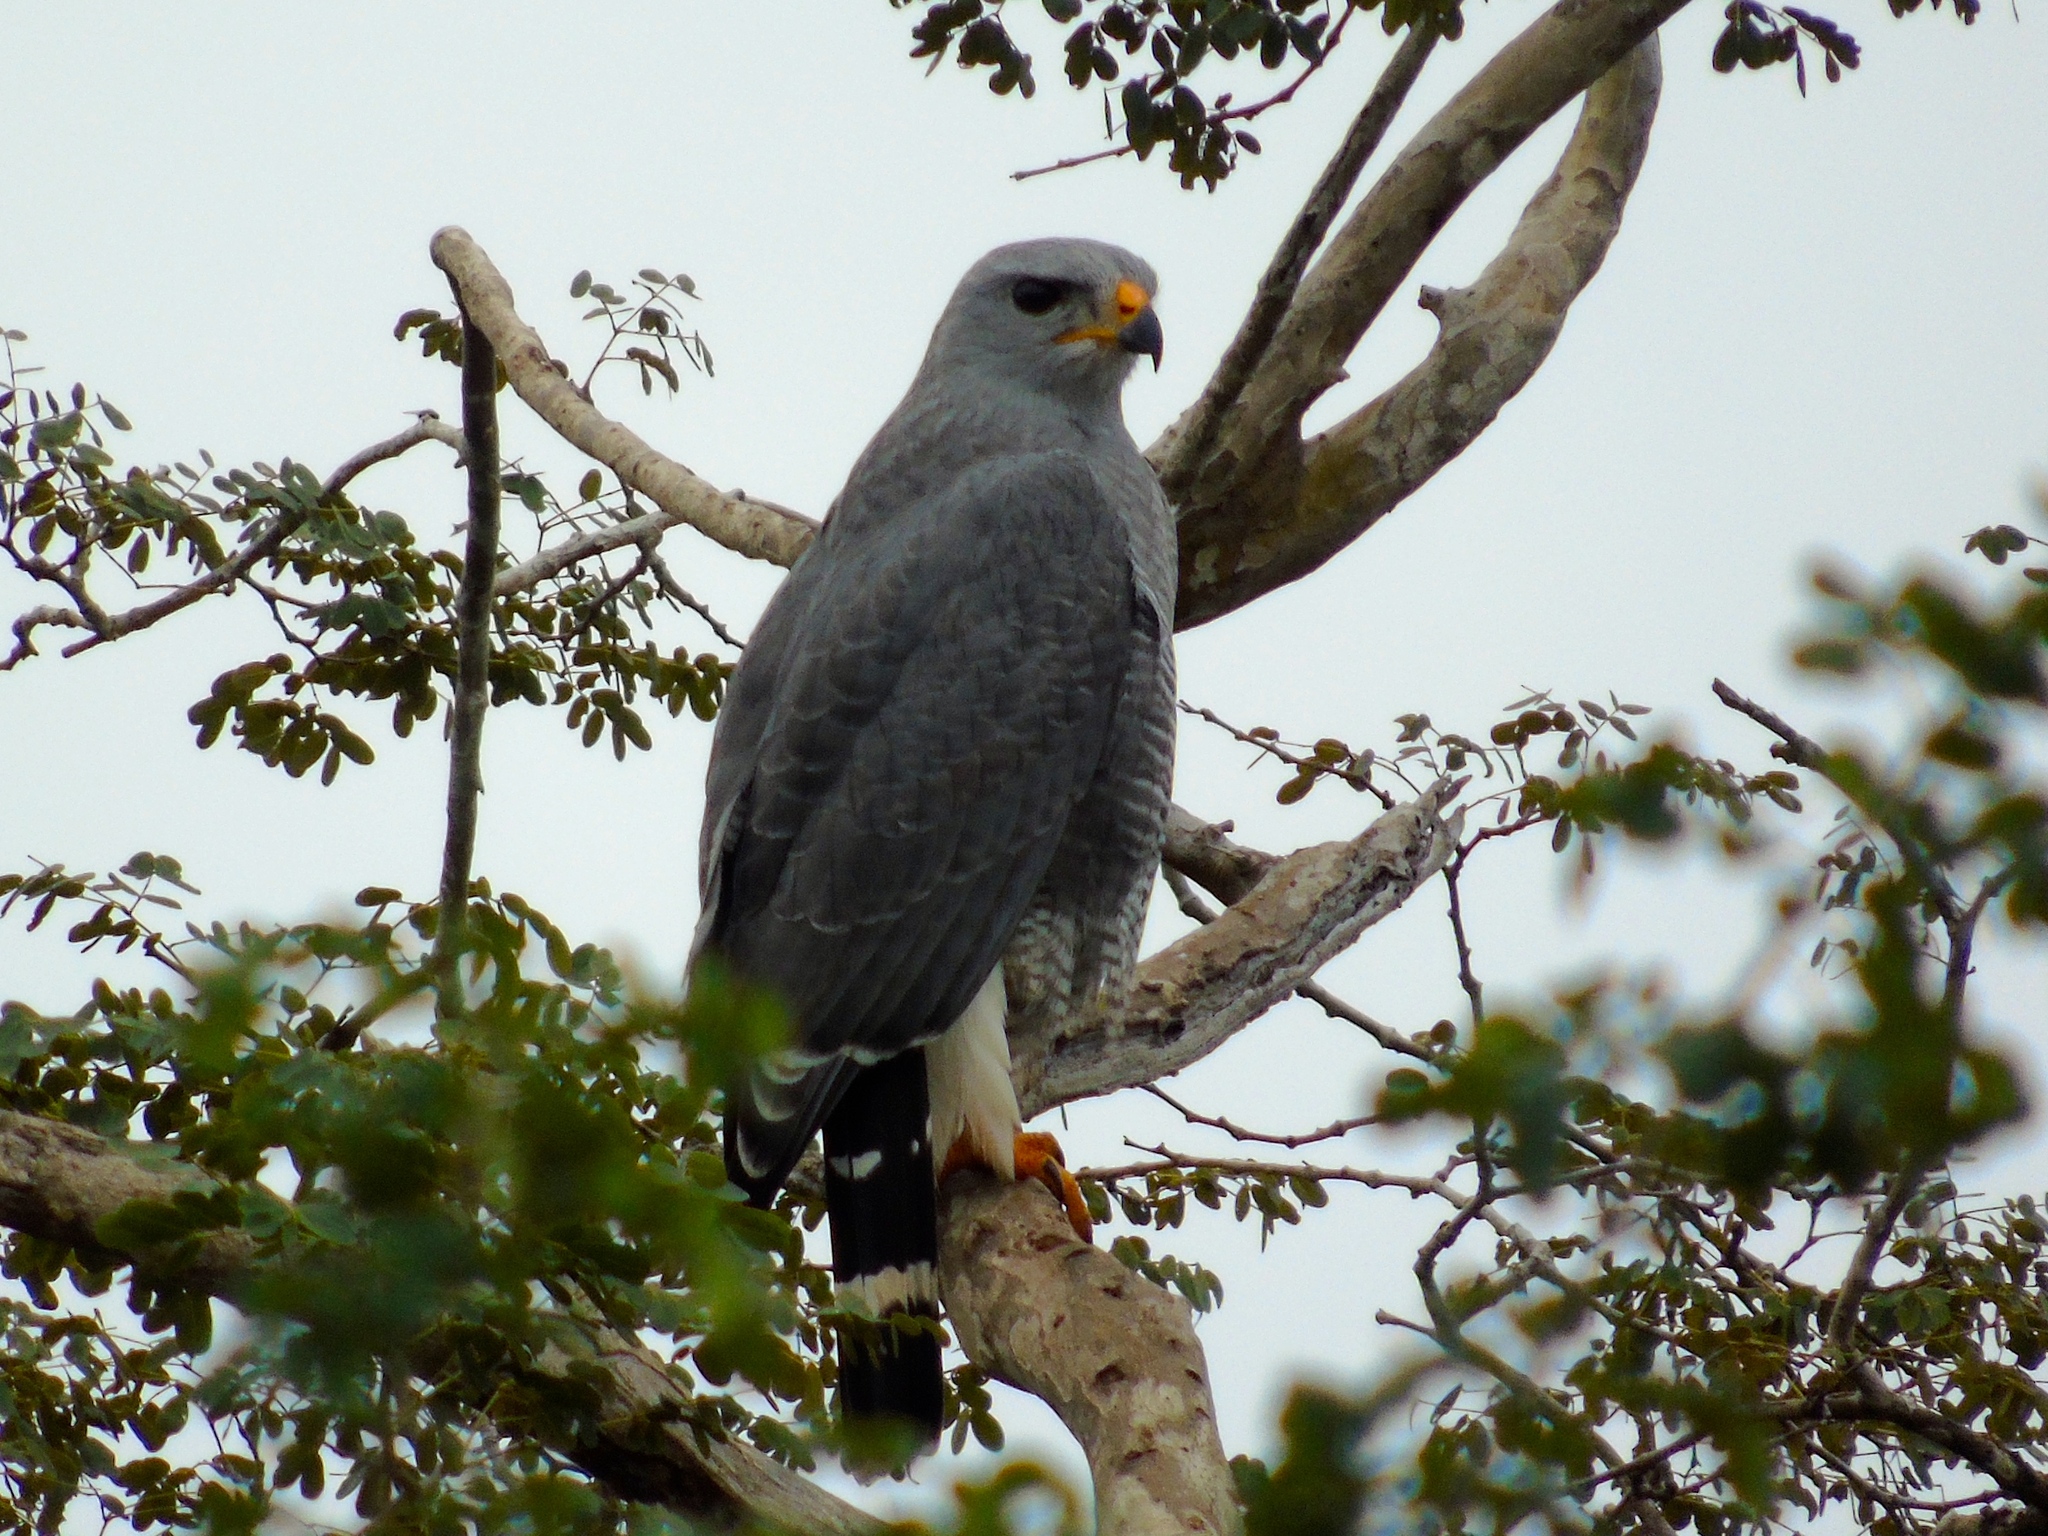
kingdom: Animalia
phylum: Chordata
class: Aves
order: Accipitriformes
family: Accipitridae
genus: Buteo
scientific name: Buteo nitidus
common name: Grey-lined hawk
